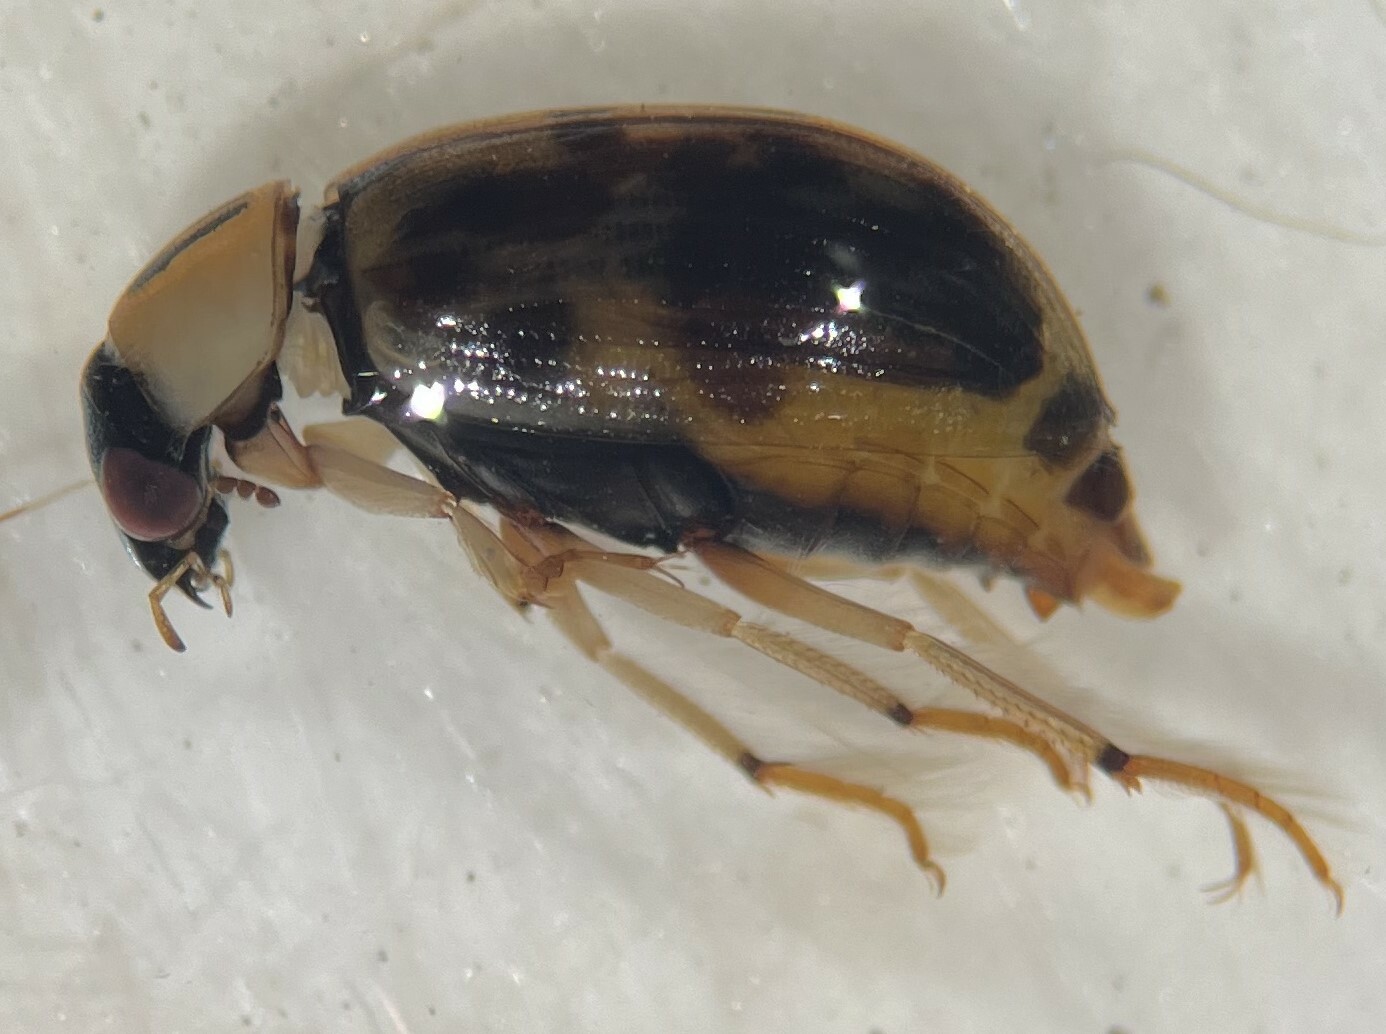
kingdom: Animalia
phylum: Arthropoda
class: Insecta
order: Coleoptera
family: Hydrophilidae
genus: Berosus
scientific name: Berosus miles
